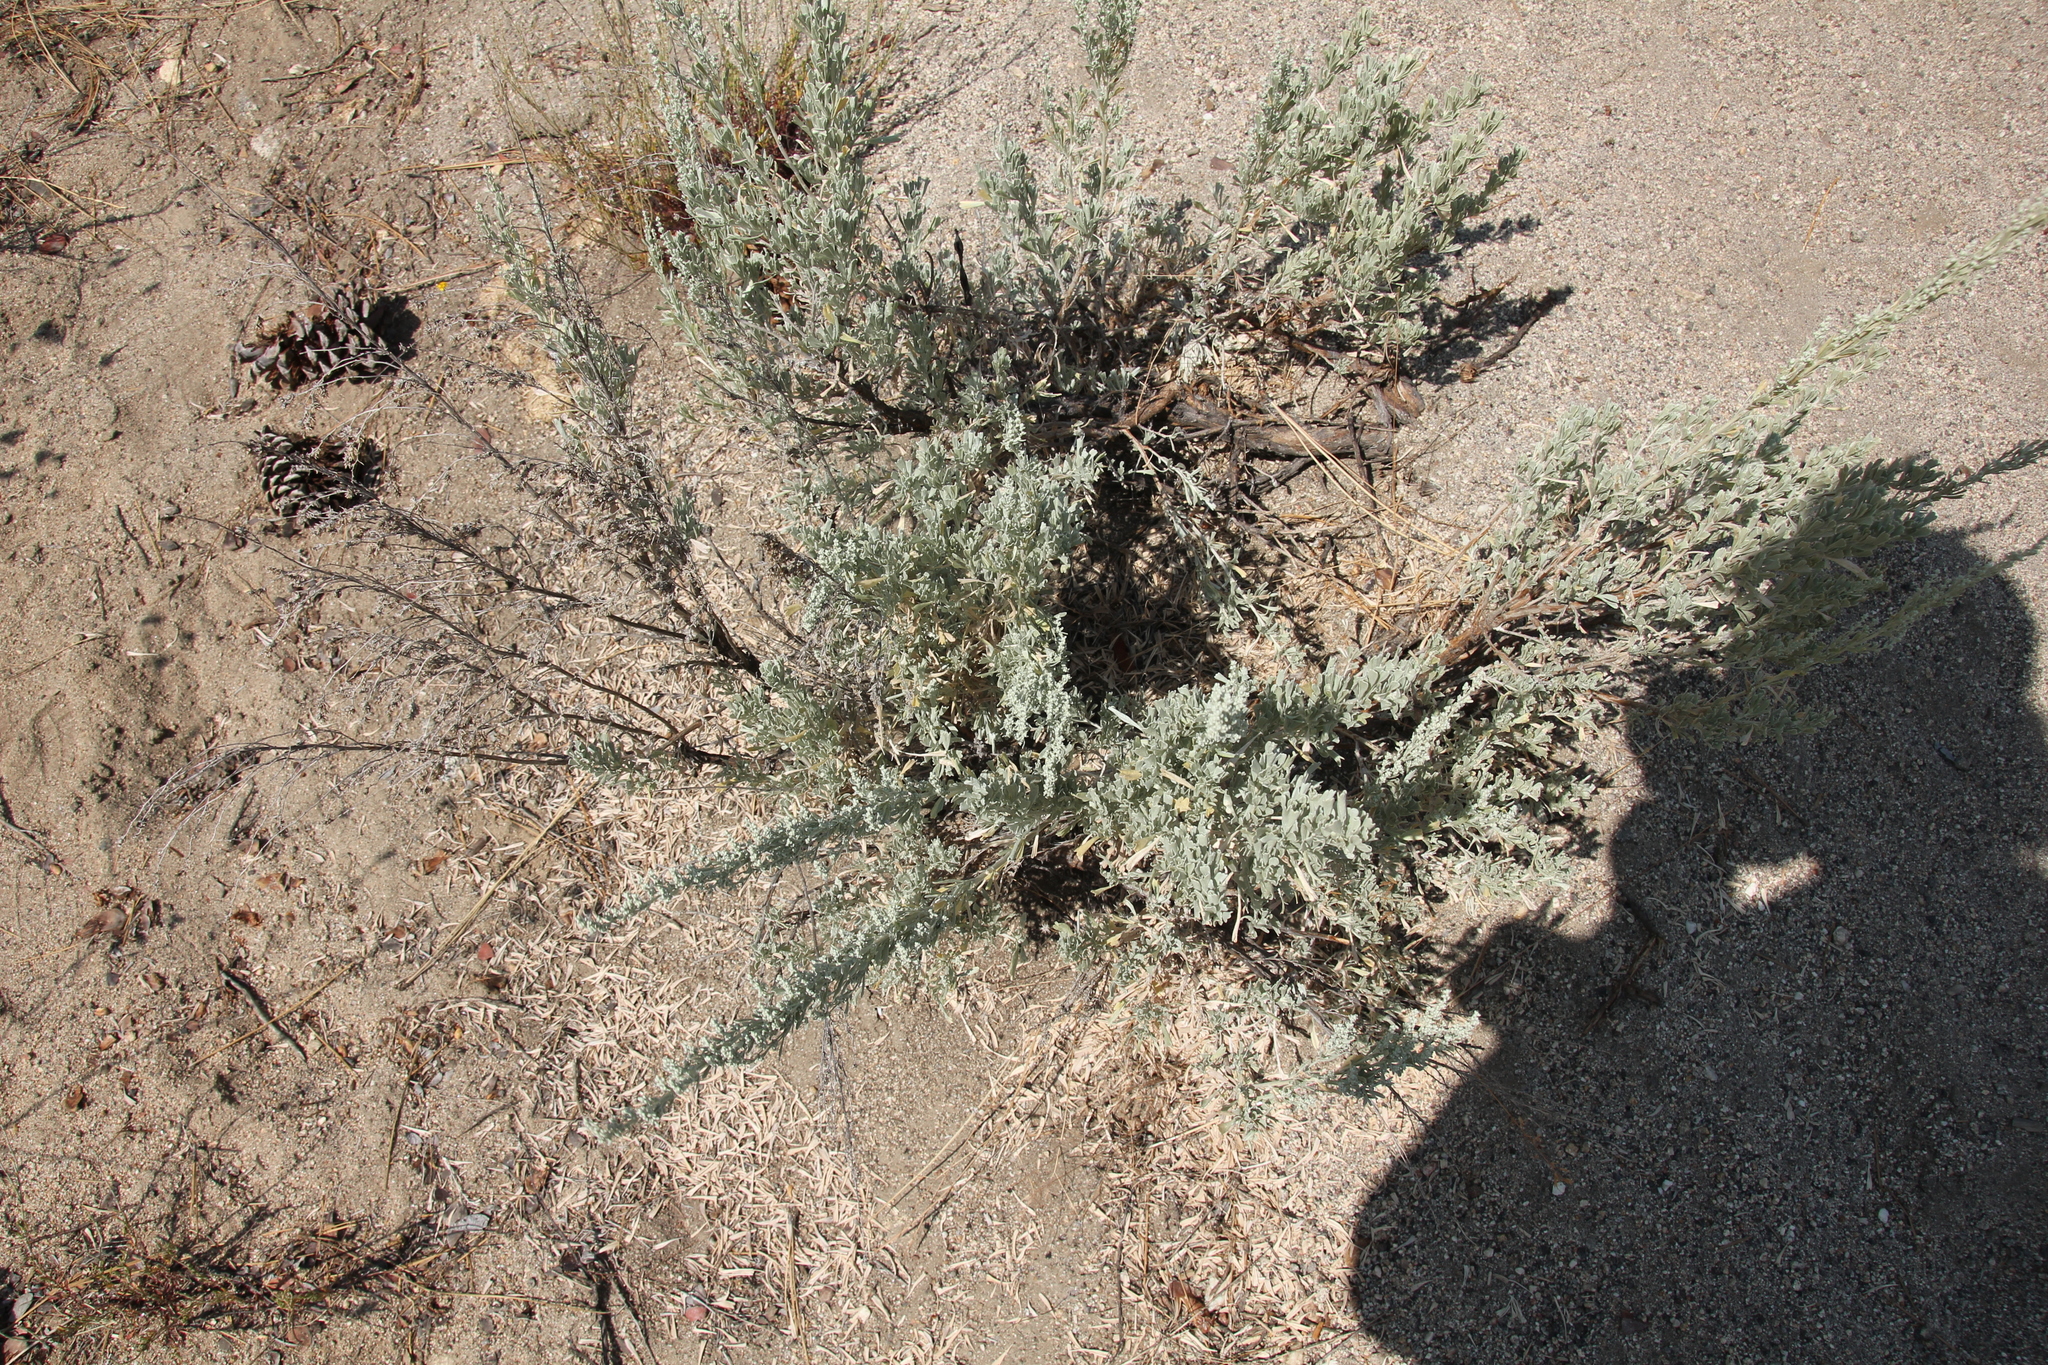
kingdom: Plantae
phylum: Tracheophyta
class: Magnoliopsida
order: Asterales
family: Asteraceae
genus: Artemisia
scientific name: Artemisia tridentata
